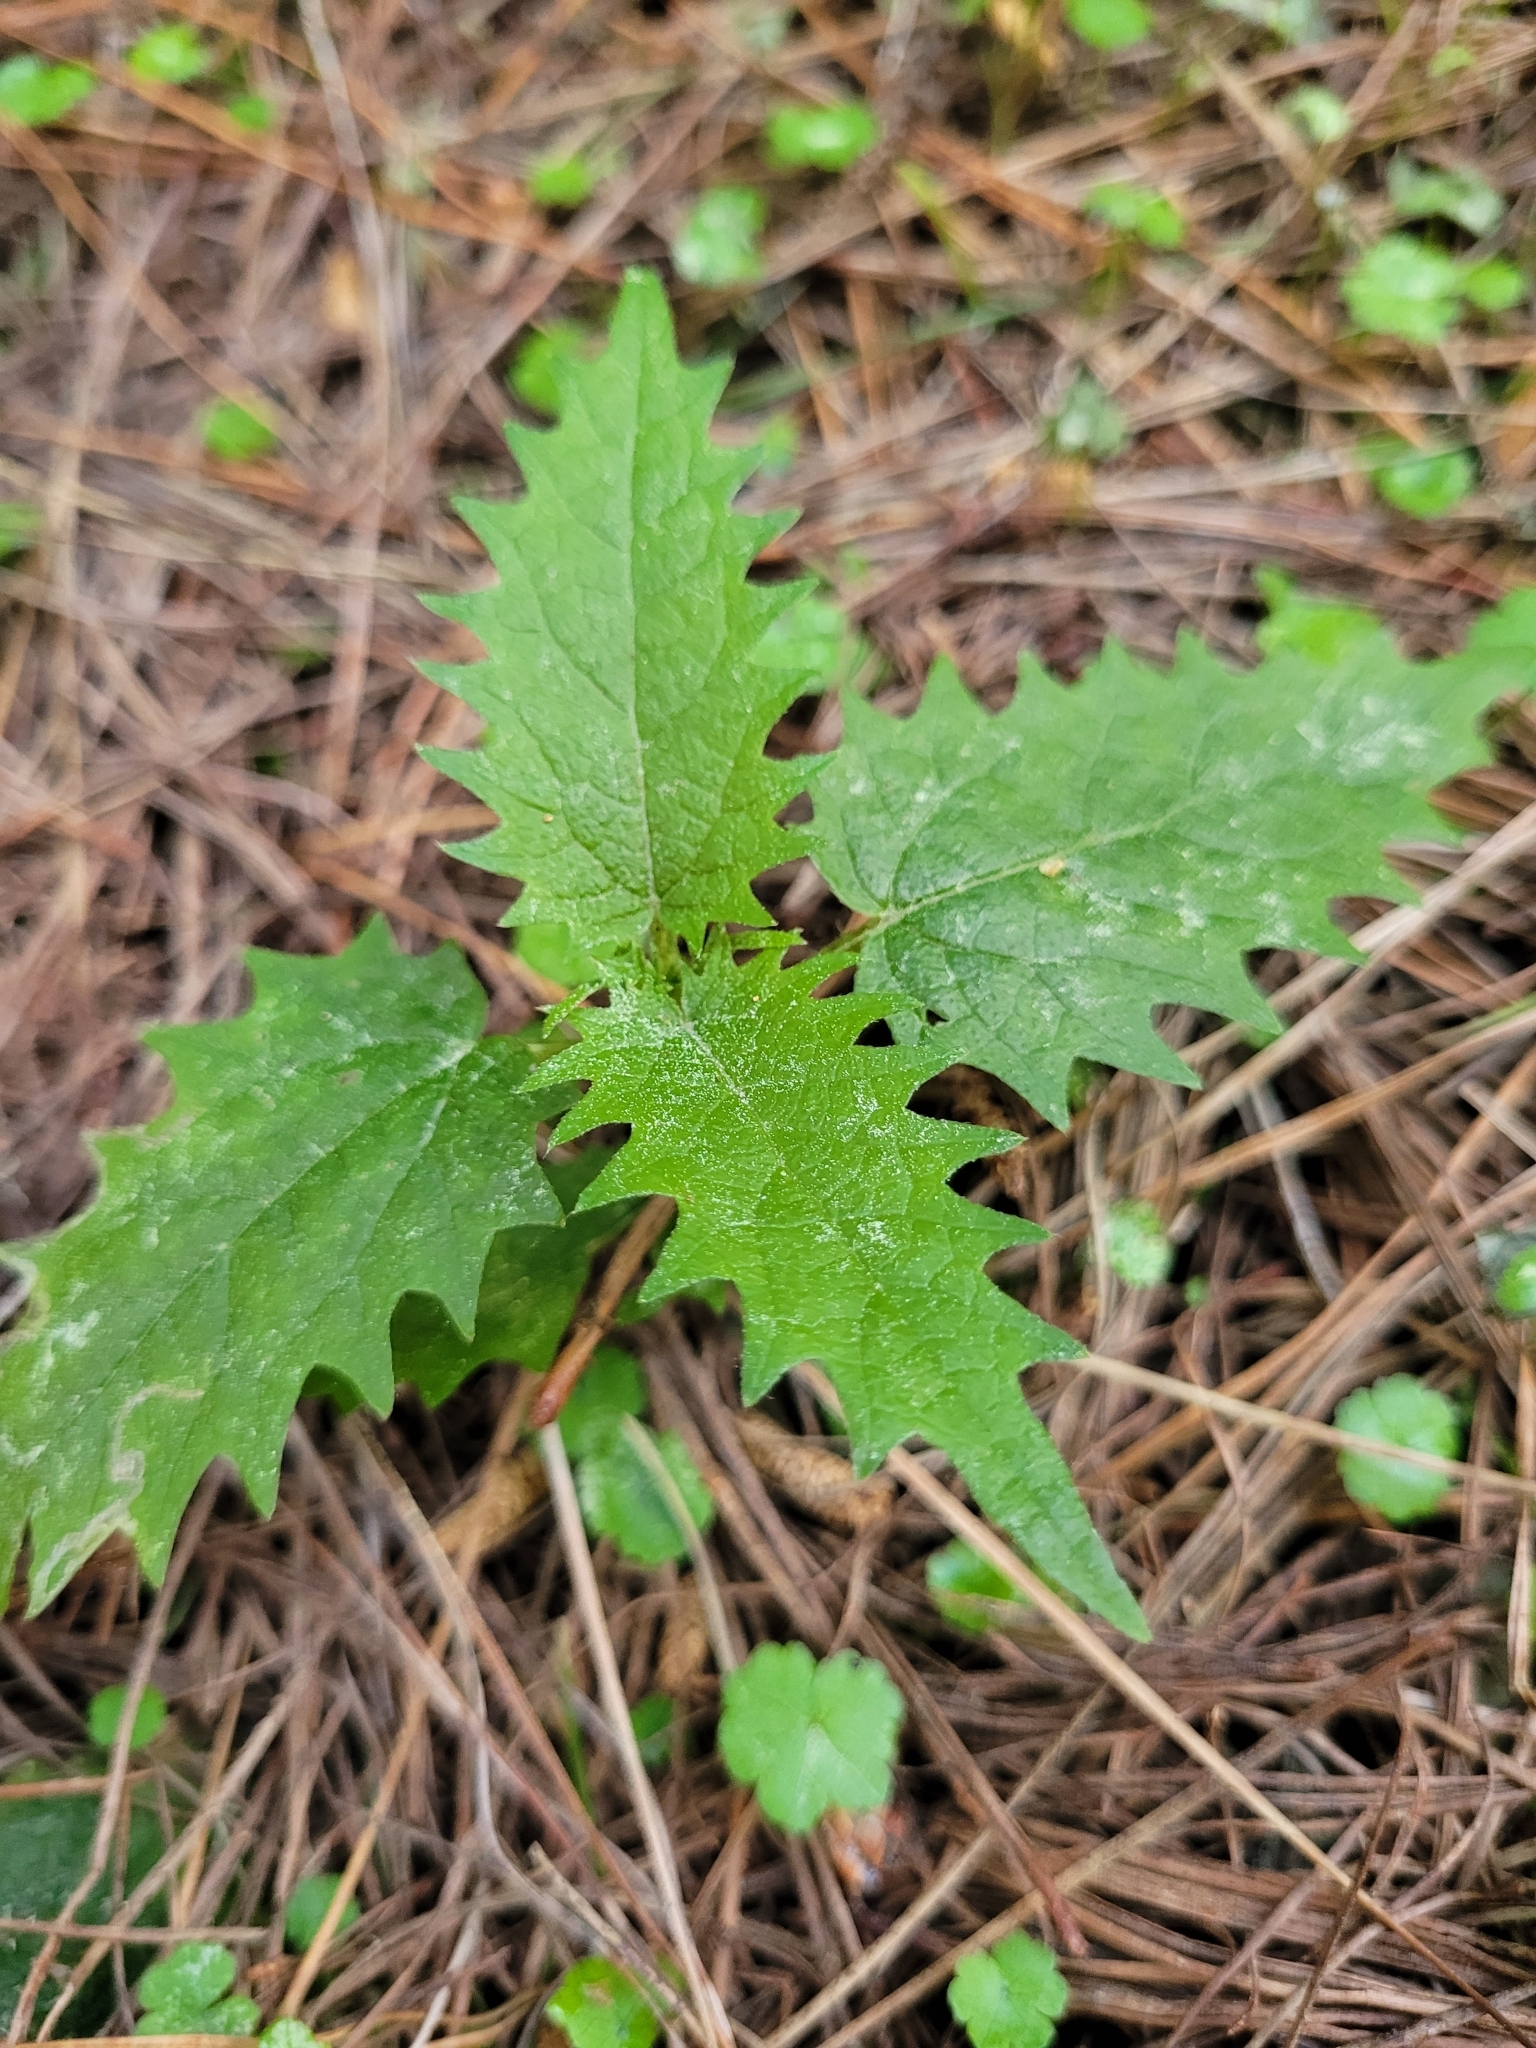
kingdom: Plantae
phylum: Tracheophyta
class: Magnoliopsida
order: Rosales
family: Urticaceae
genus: Urtica
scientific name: Urtica ferox
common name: Tree nettle
